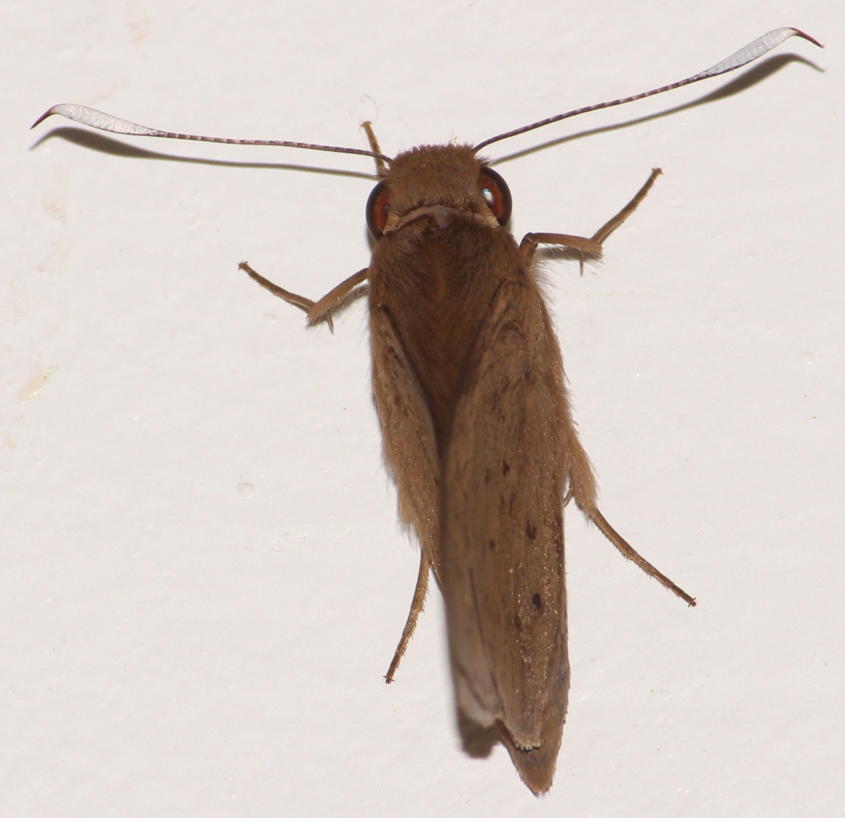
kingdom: Animalia
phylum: Arthropoda
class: Insecta
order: Lepidoptera
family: Hesperiidae
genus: Zophopetes
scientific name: Zophopetes dysmephila
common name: Palm-tree nightfighter
